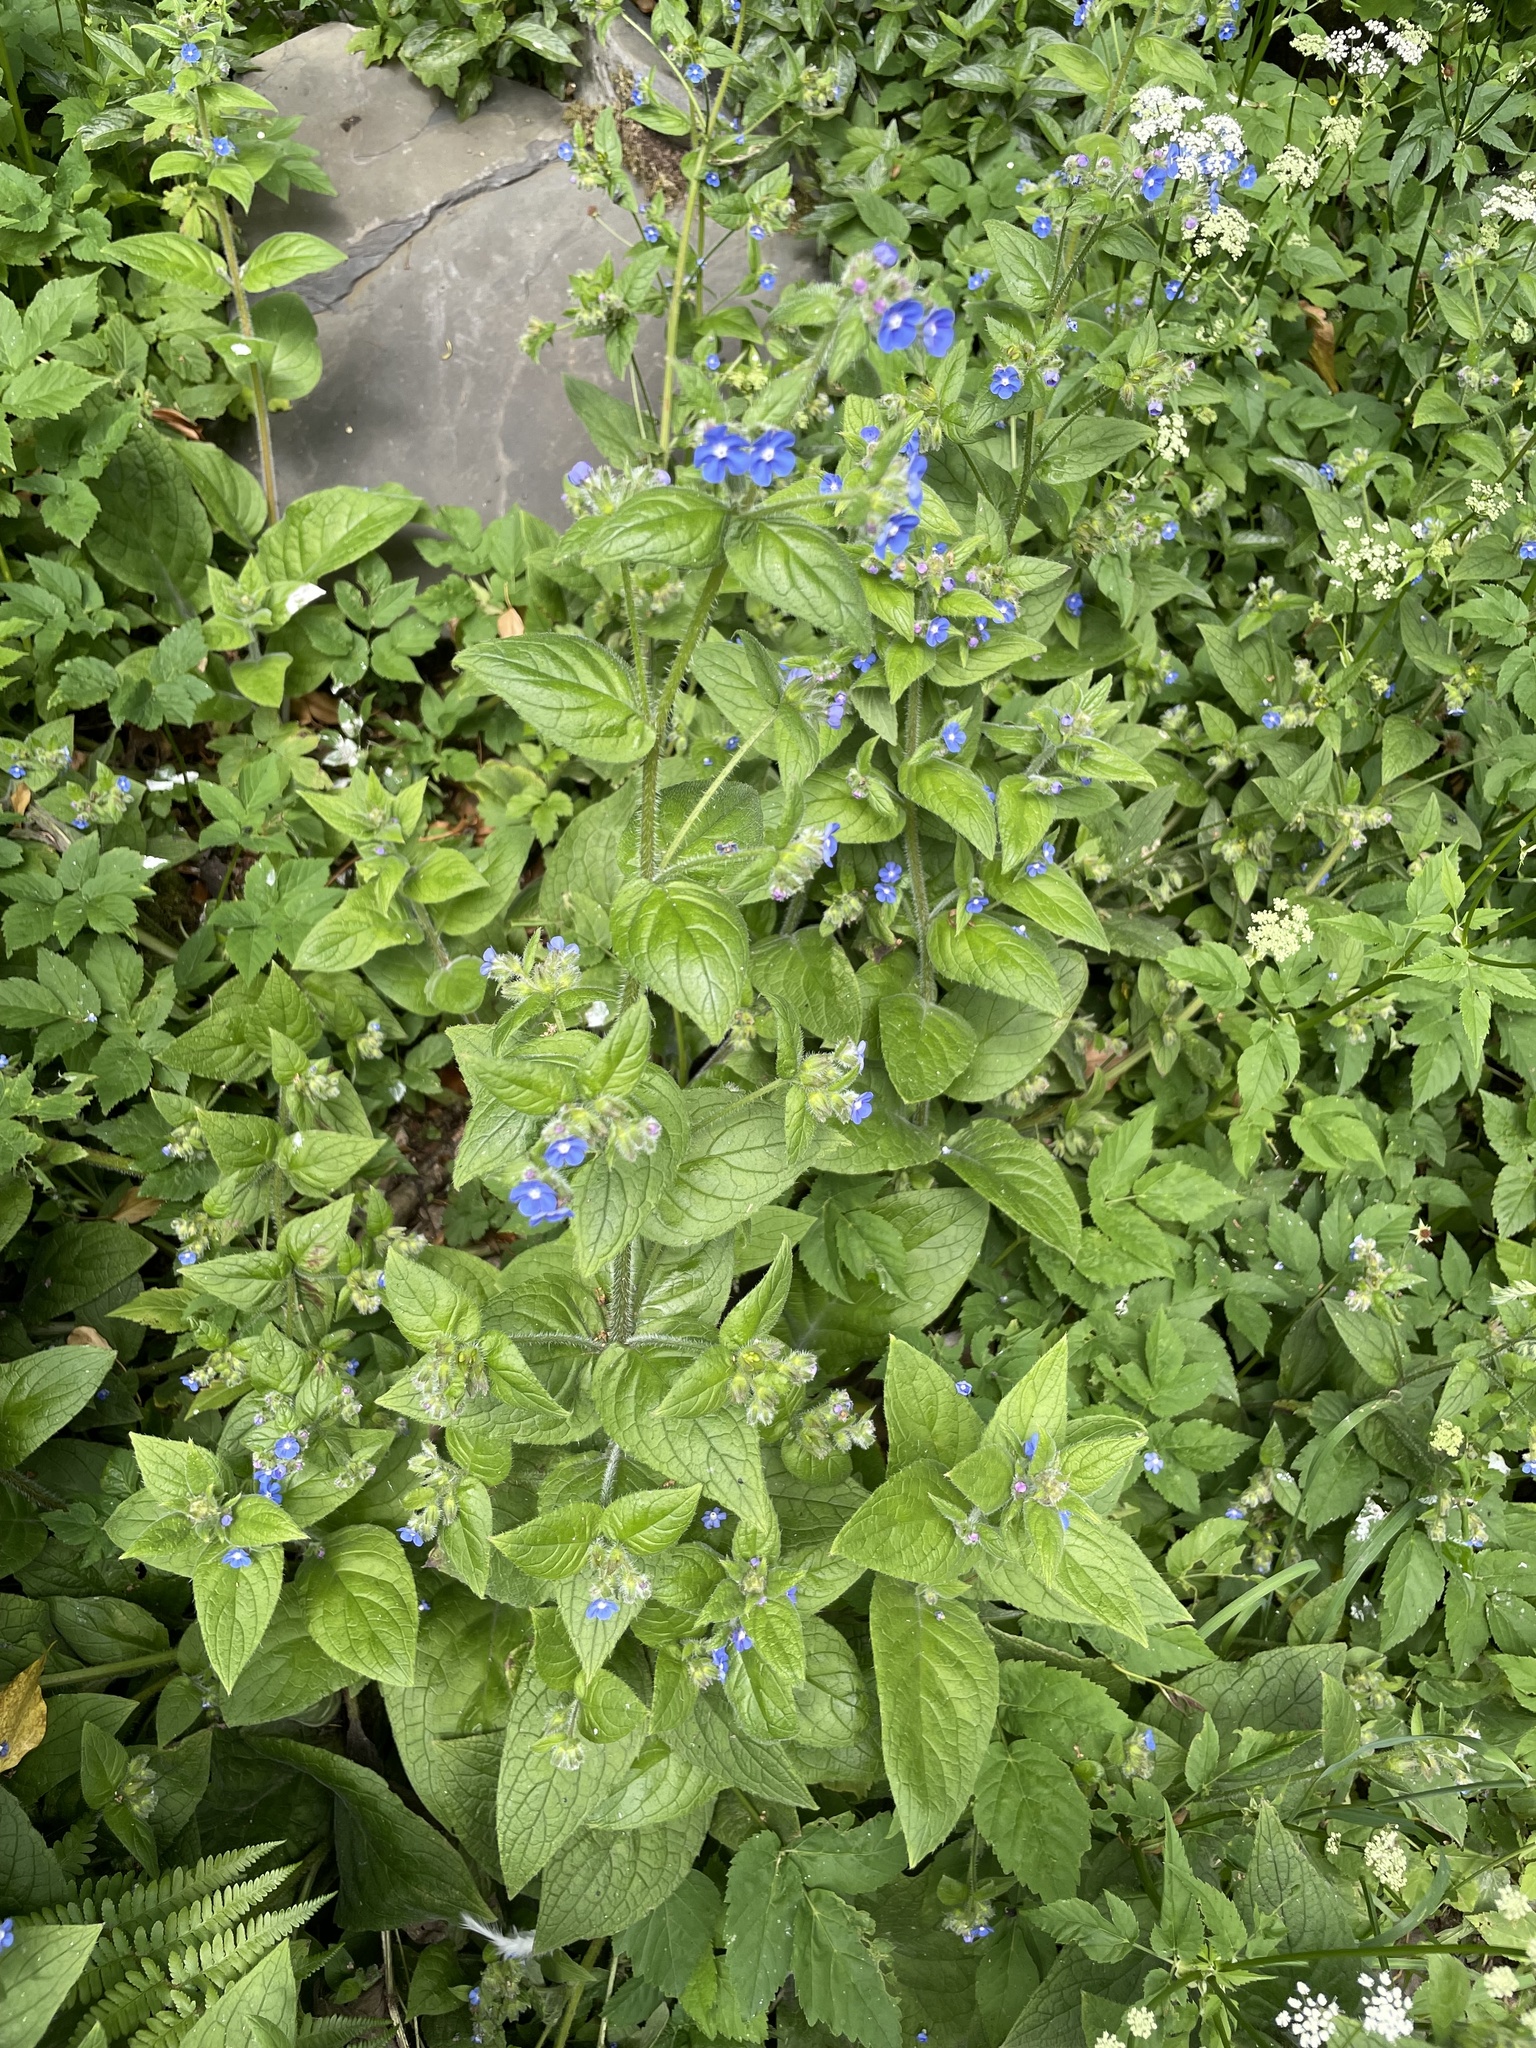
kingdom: Plantae
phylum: Tracheophyta
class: Magnoliopsida
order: Boraginales
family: Boraginaceae
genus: Pentaglottis
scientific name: Pentaglottis sempervirens
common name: Green alkanet
